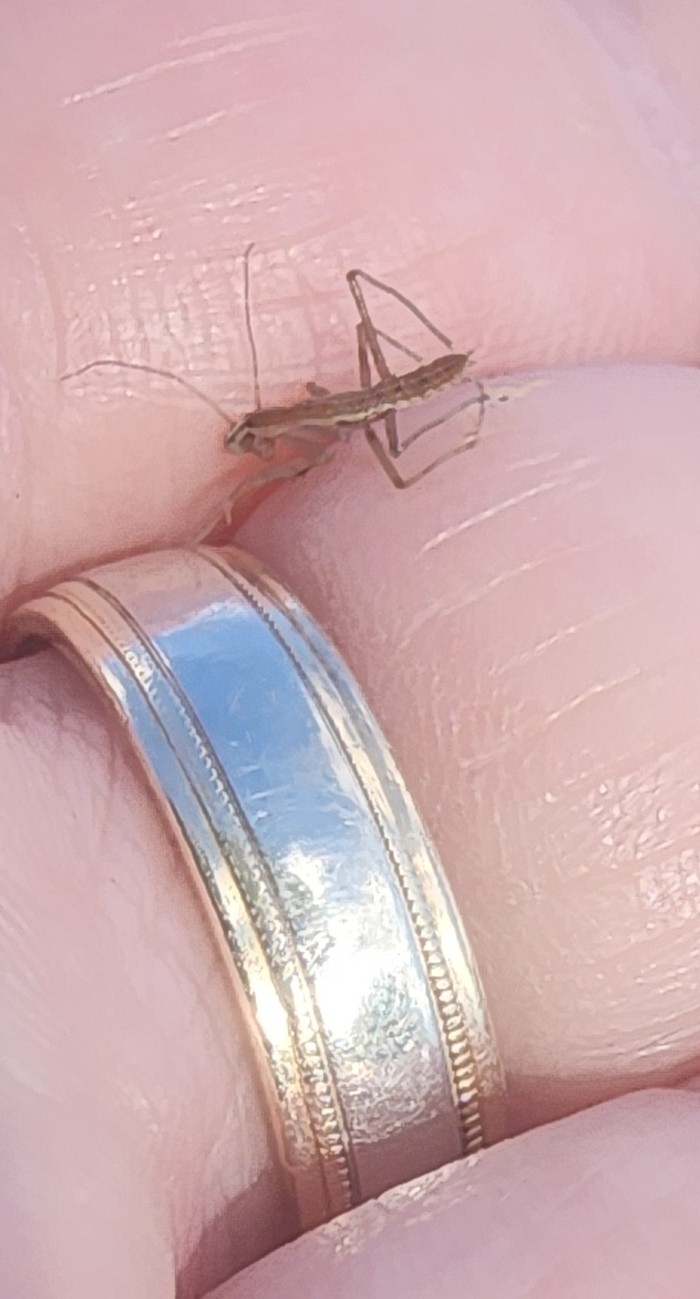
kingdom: Animalia
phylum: Arthropoda
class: Insecta
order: Mantodea
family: Mantidae
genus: Tenodera
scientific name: Tenodera sinensis
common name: Chinese mantis
